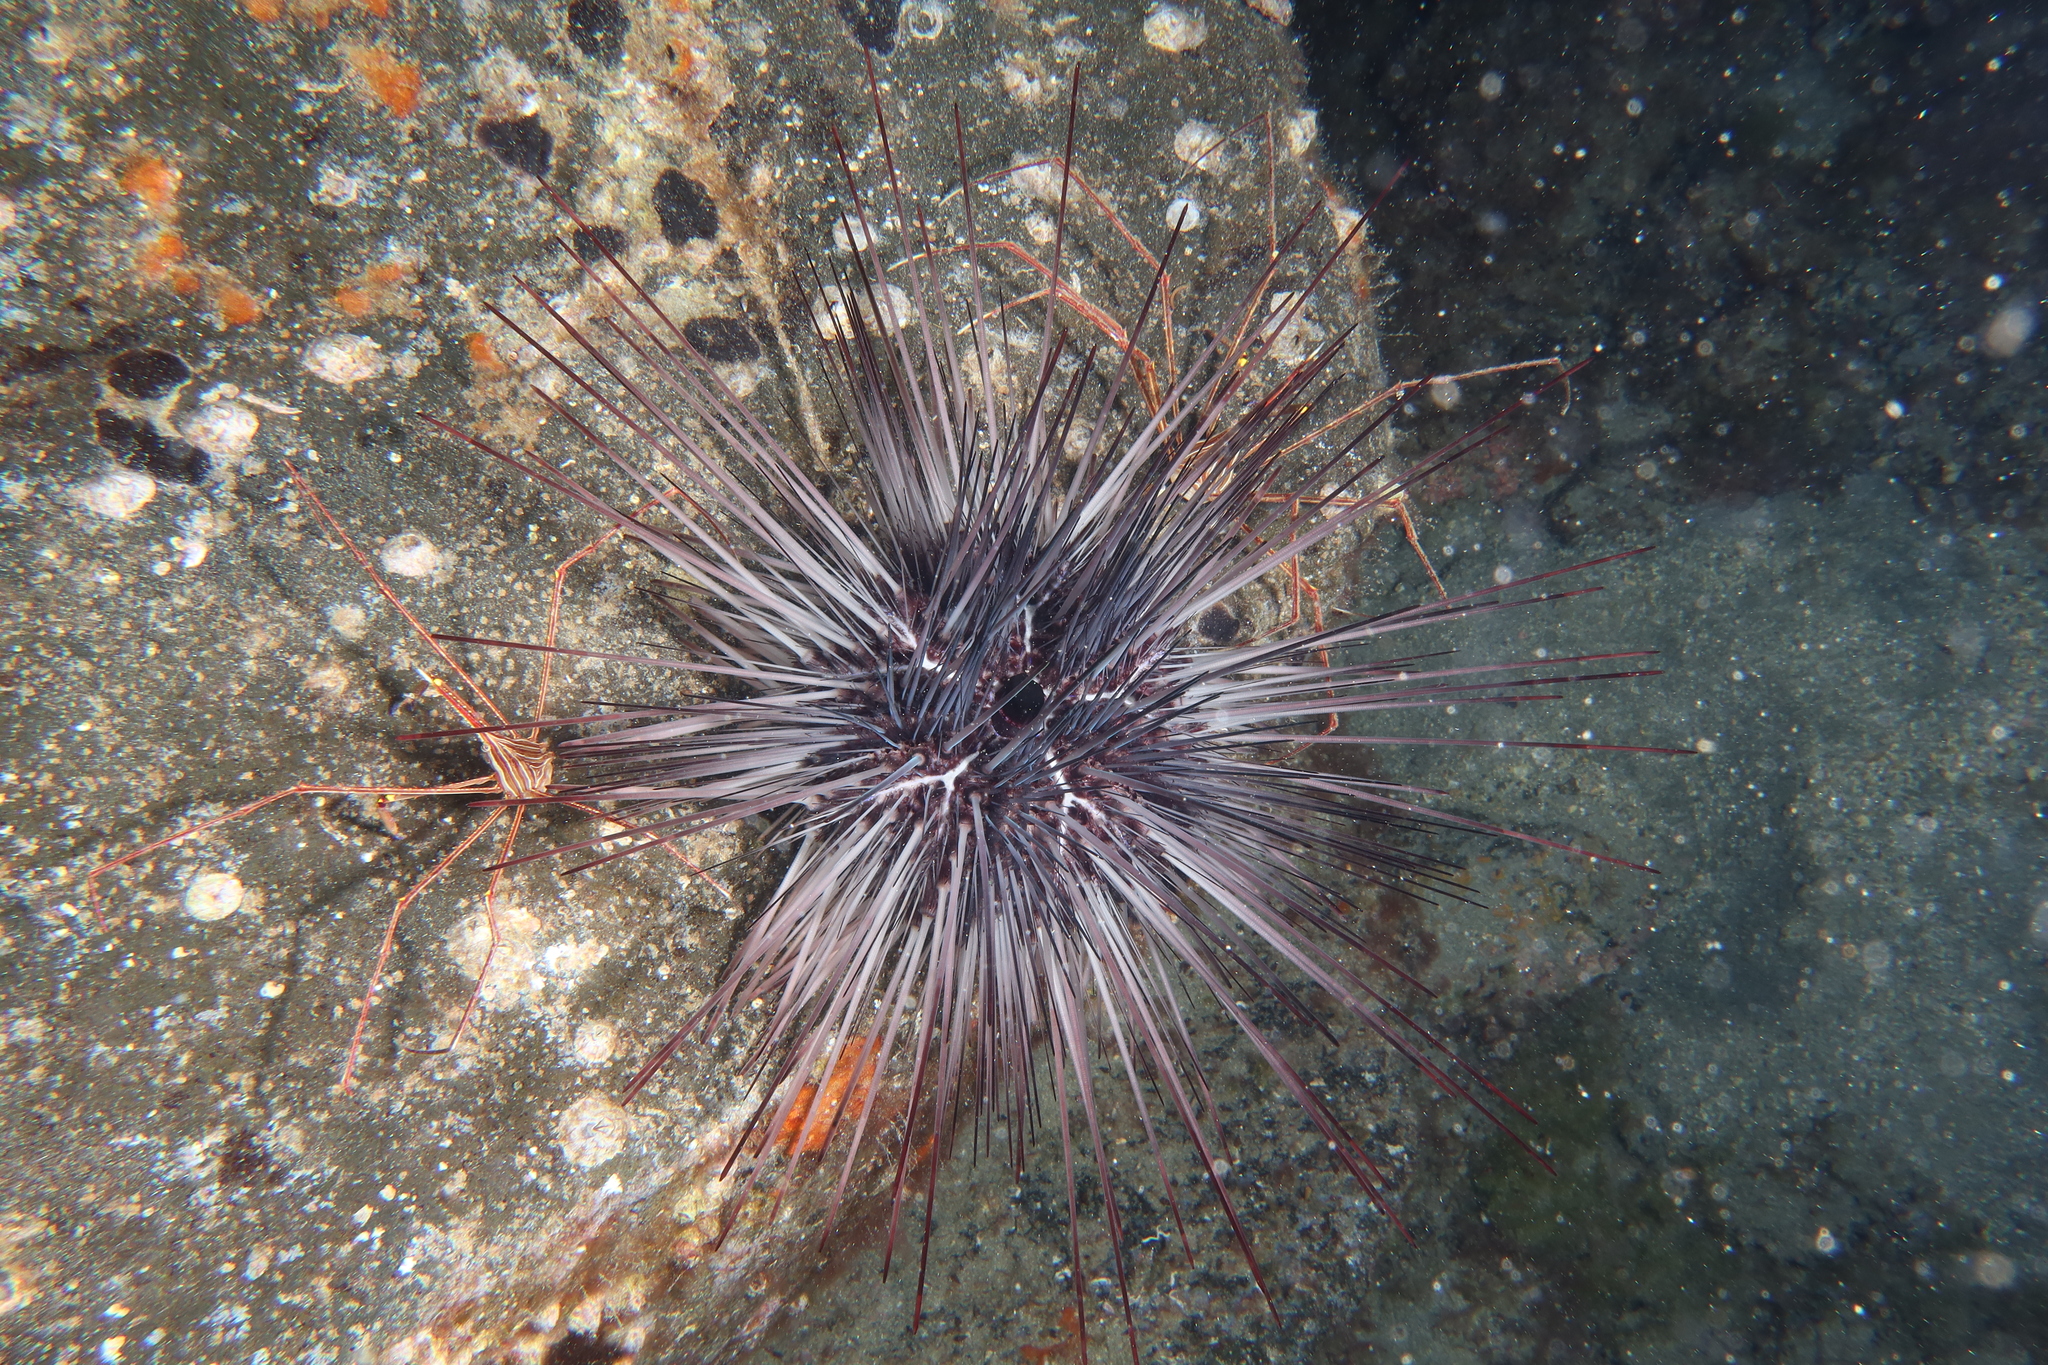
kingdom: Animalia
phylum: Echinodermata
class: Echinoidea
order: Diadematoida
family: Diadematidae
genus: Diadema
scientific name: Diadema africanum
